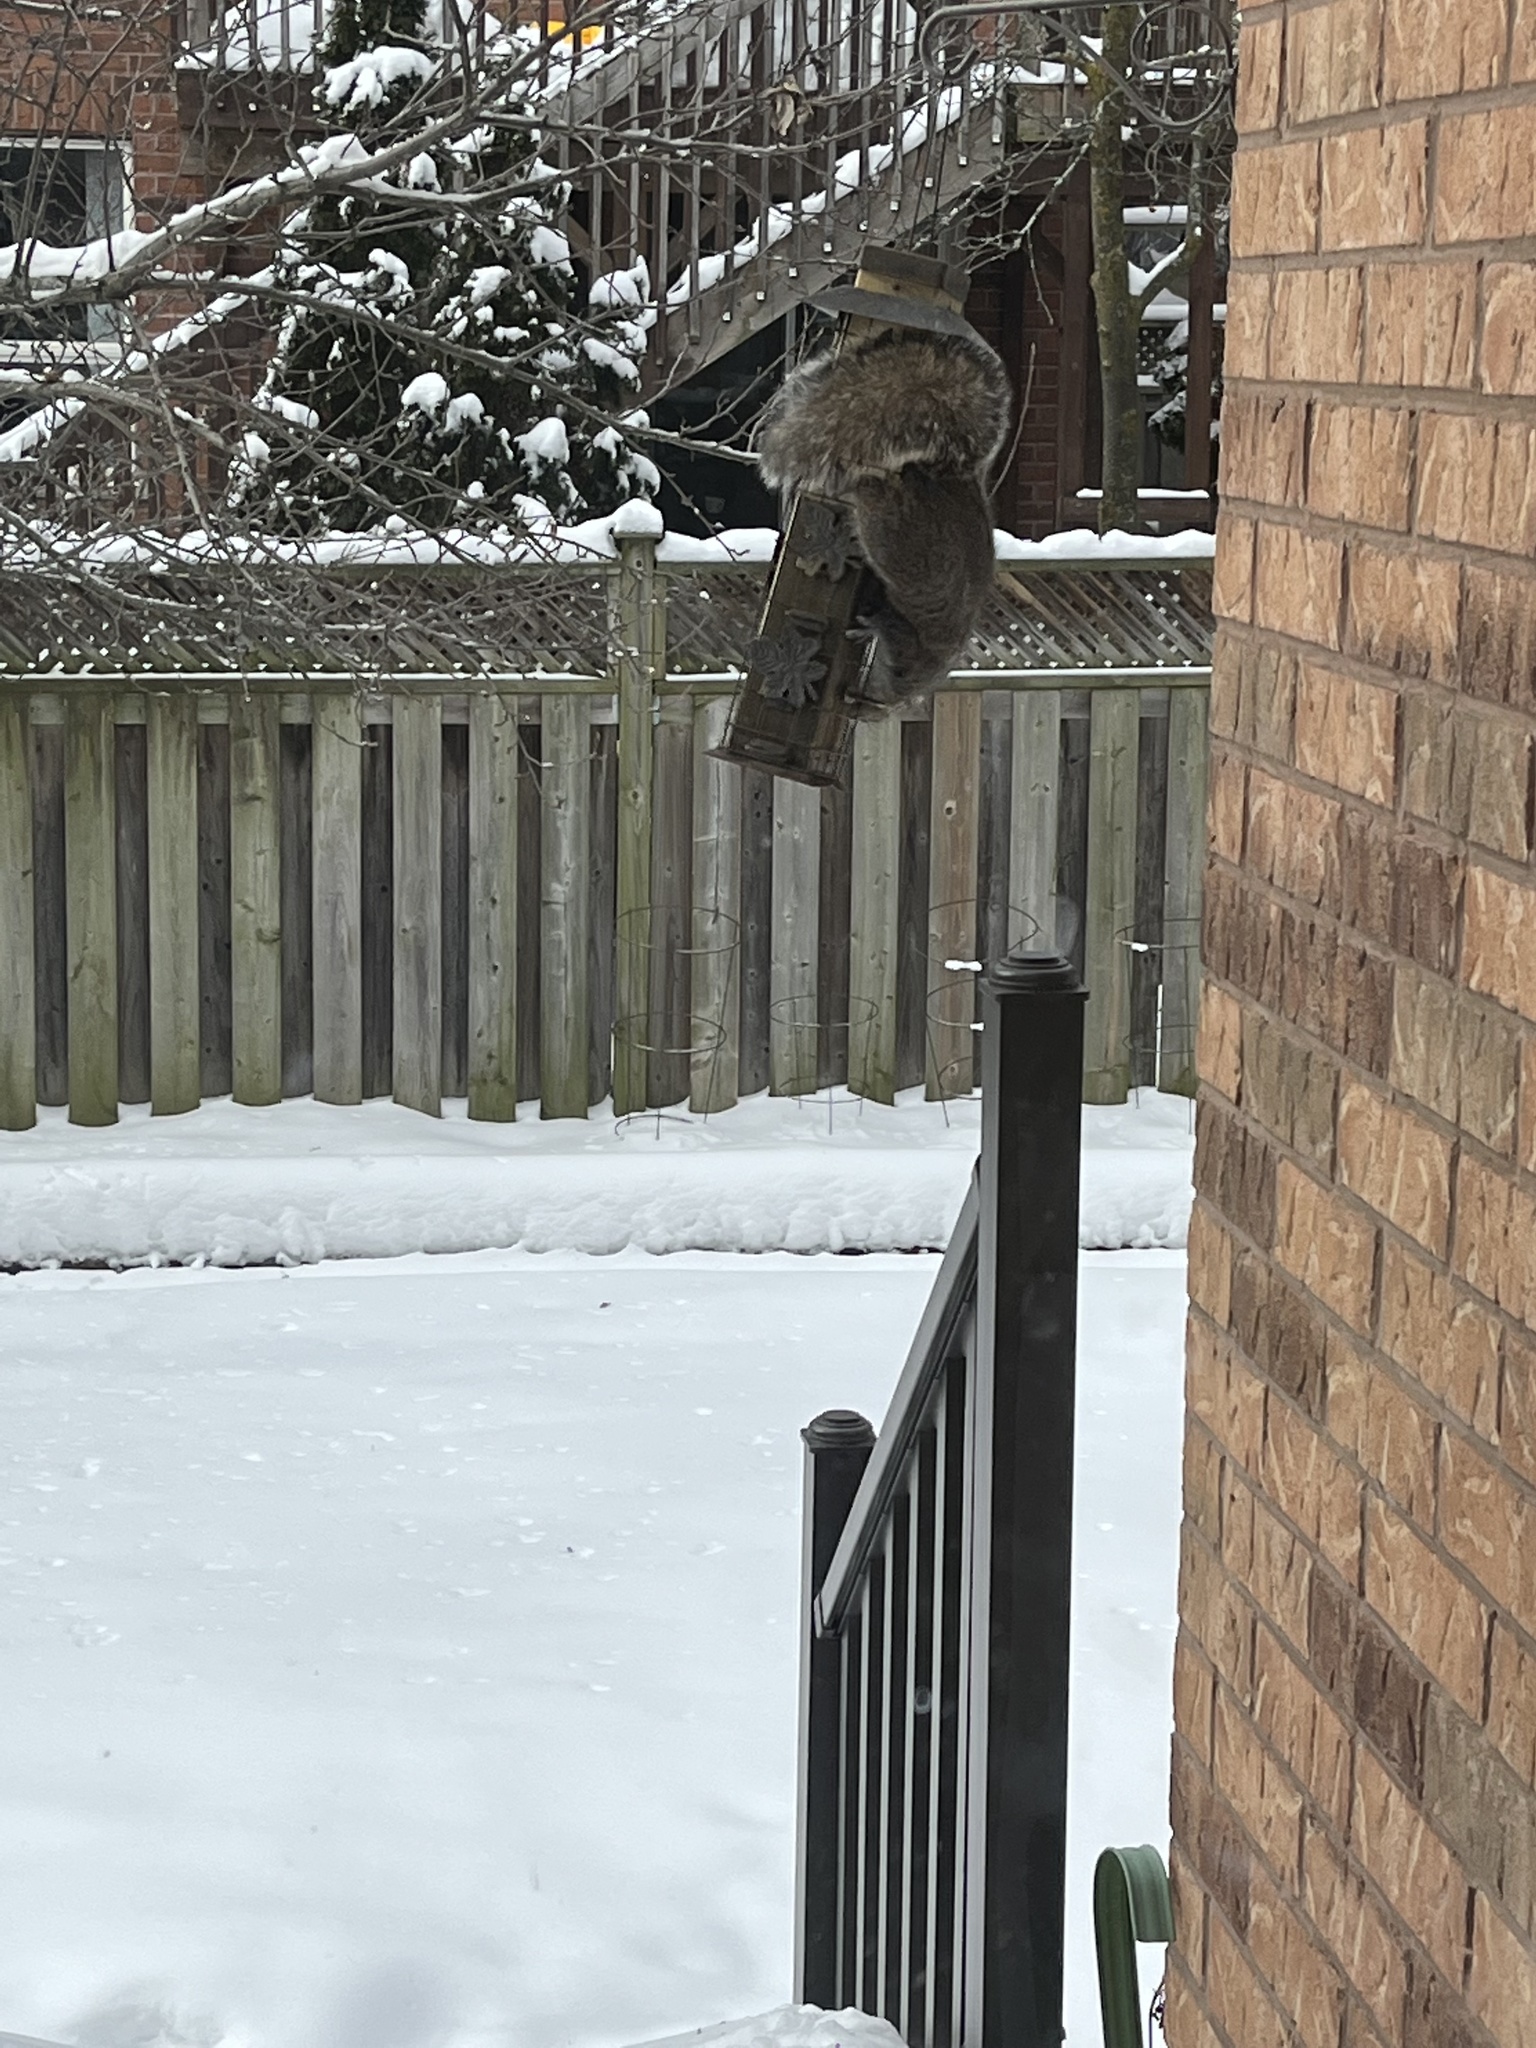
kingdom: Animalia
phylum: Chordata
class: Mammalia
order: Rodentia
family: Sciuridae
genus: Sciurus
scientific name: Sciurus carolinensis
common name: Eastern gray squirrel
